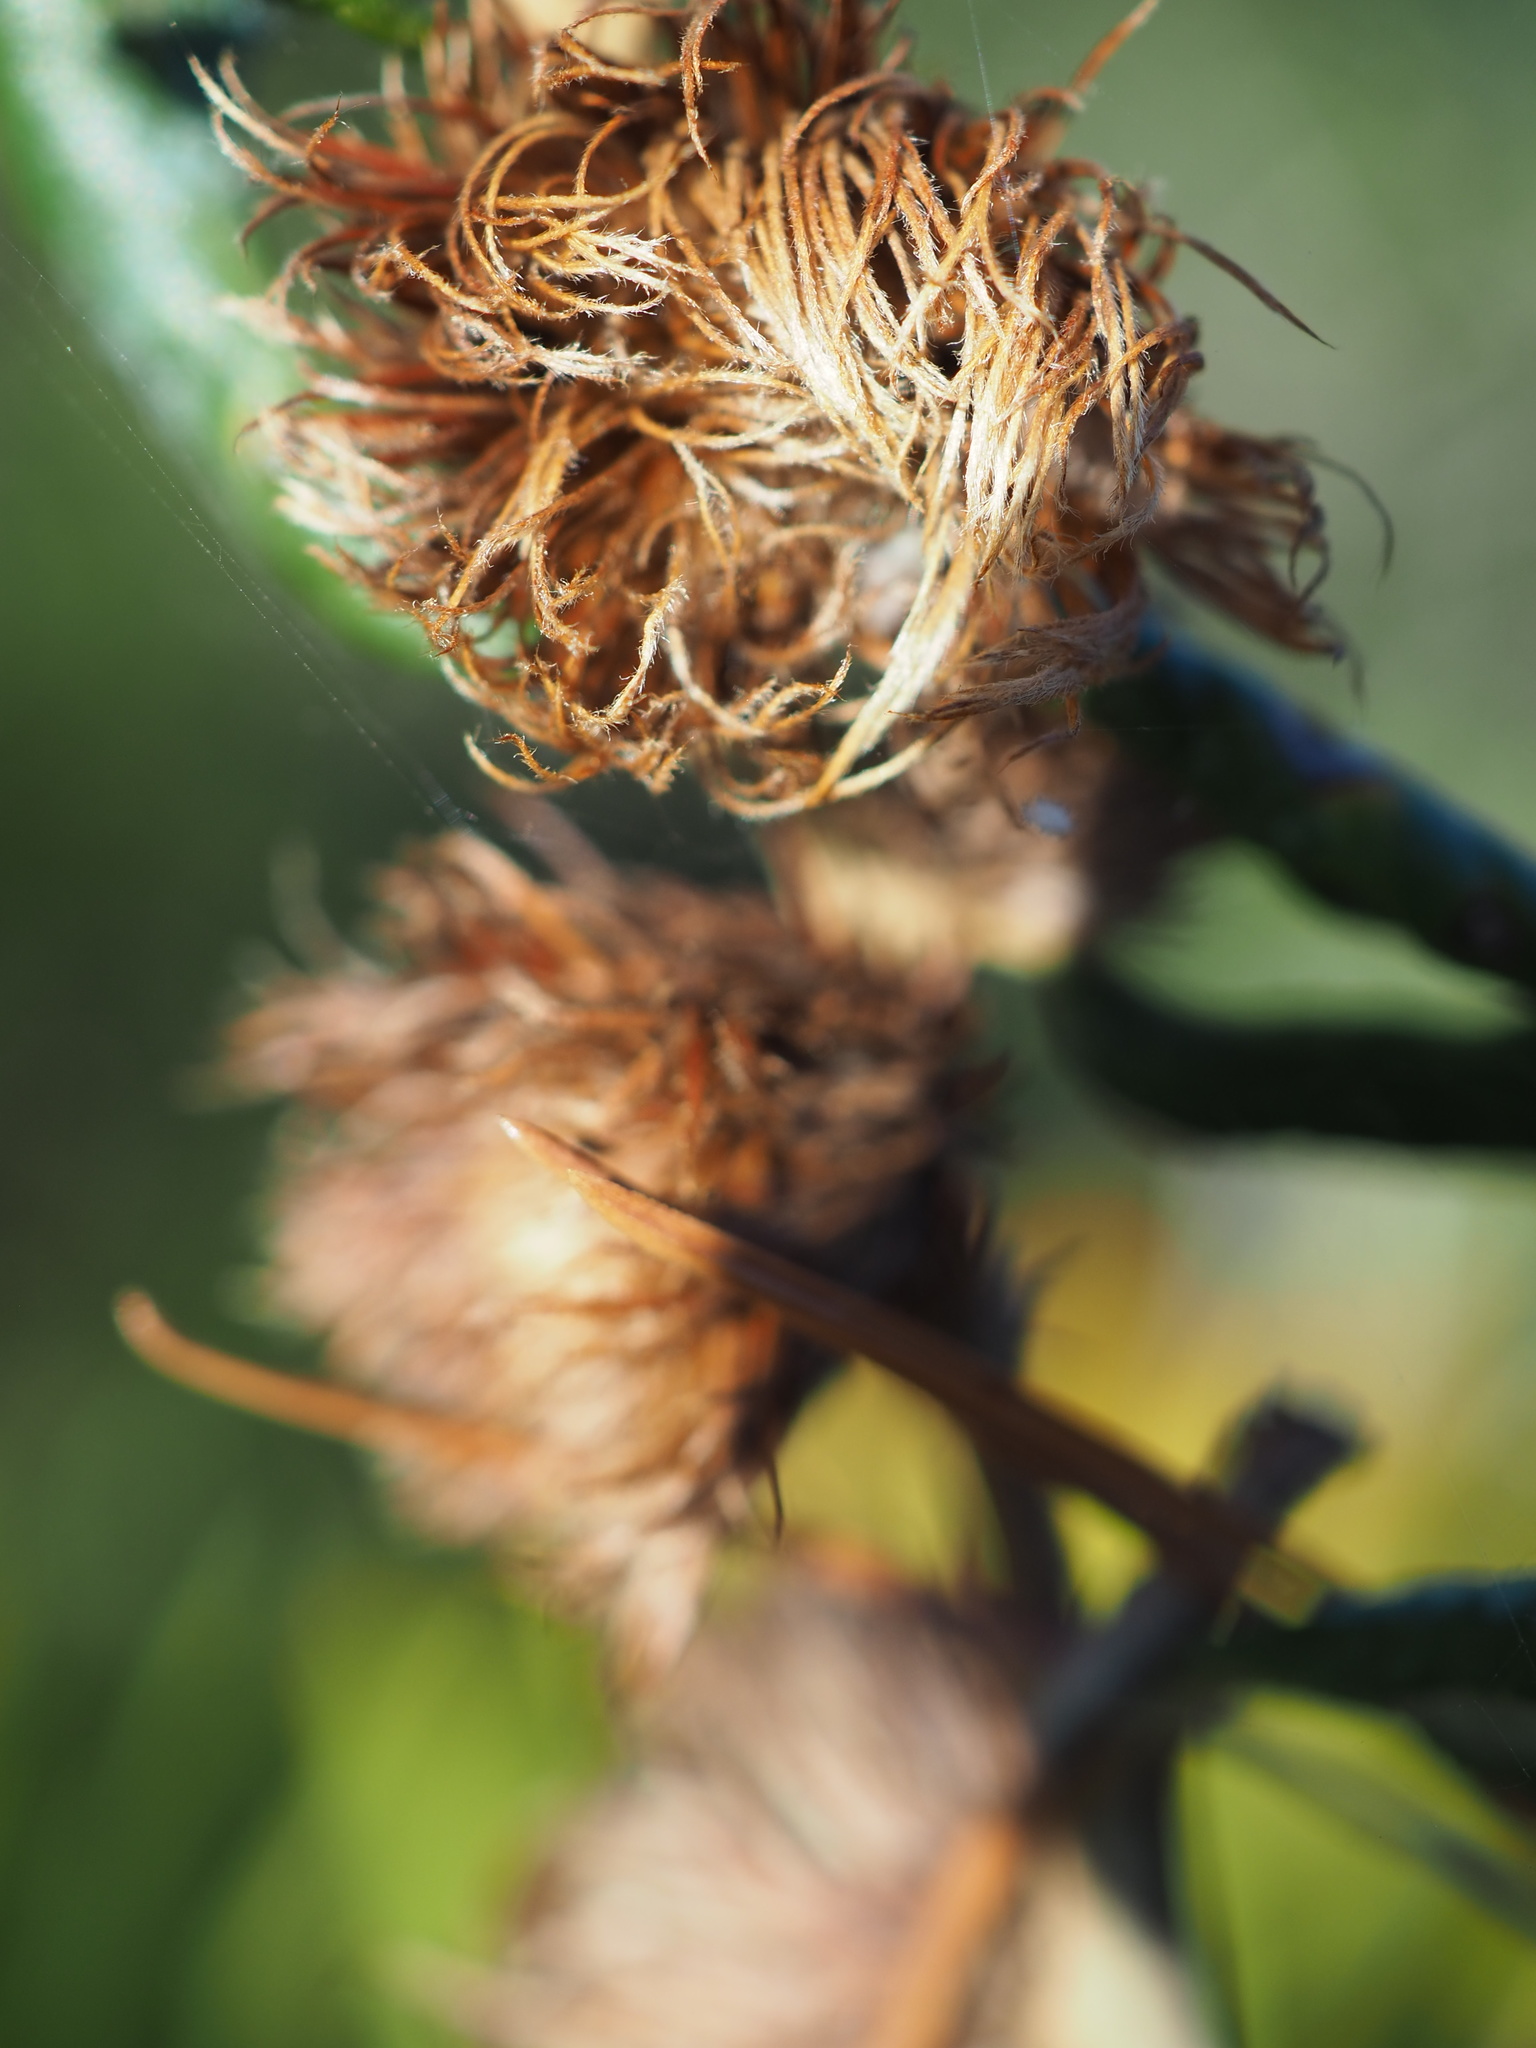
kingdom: Animalia
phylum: Arthropoda
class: Insecta
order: Hymenoptera
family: Cynipidae
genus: Andricus
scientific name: Andricus quercusfoliatus
